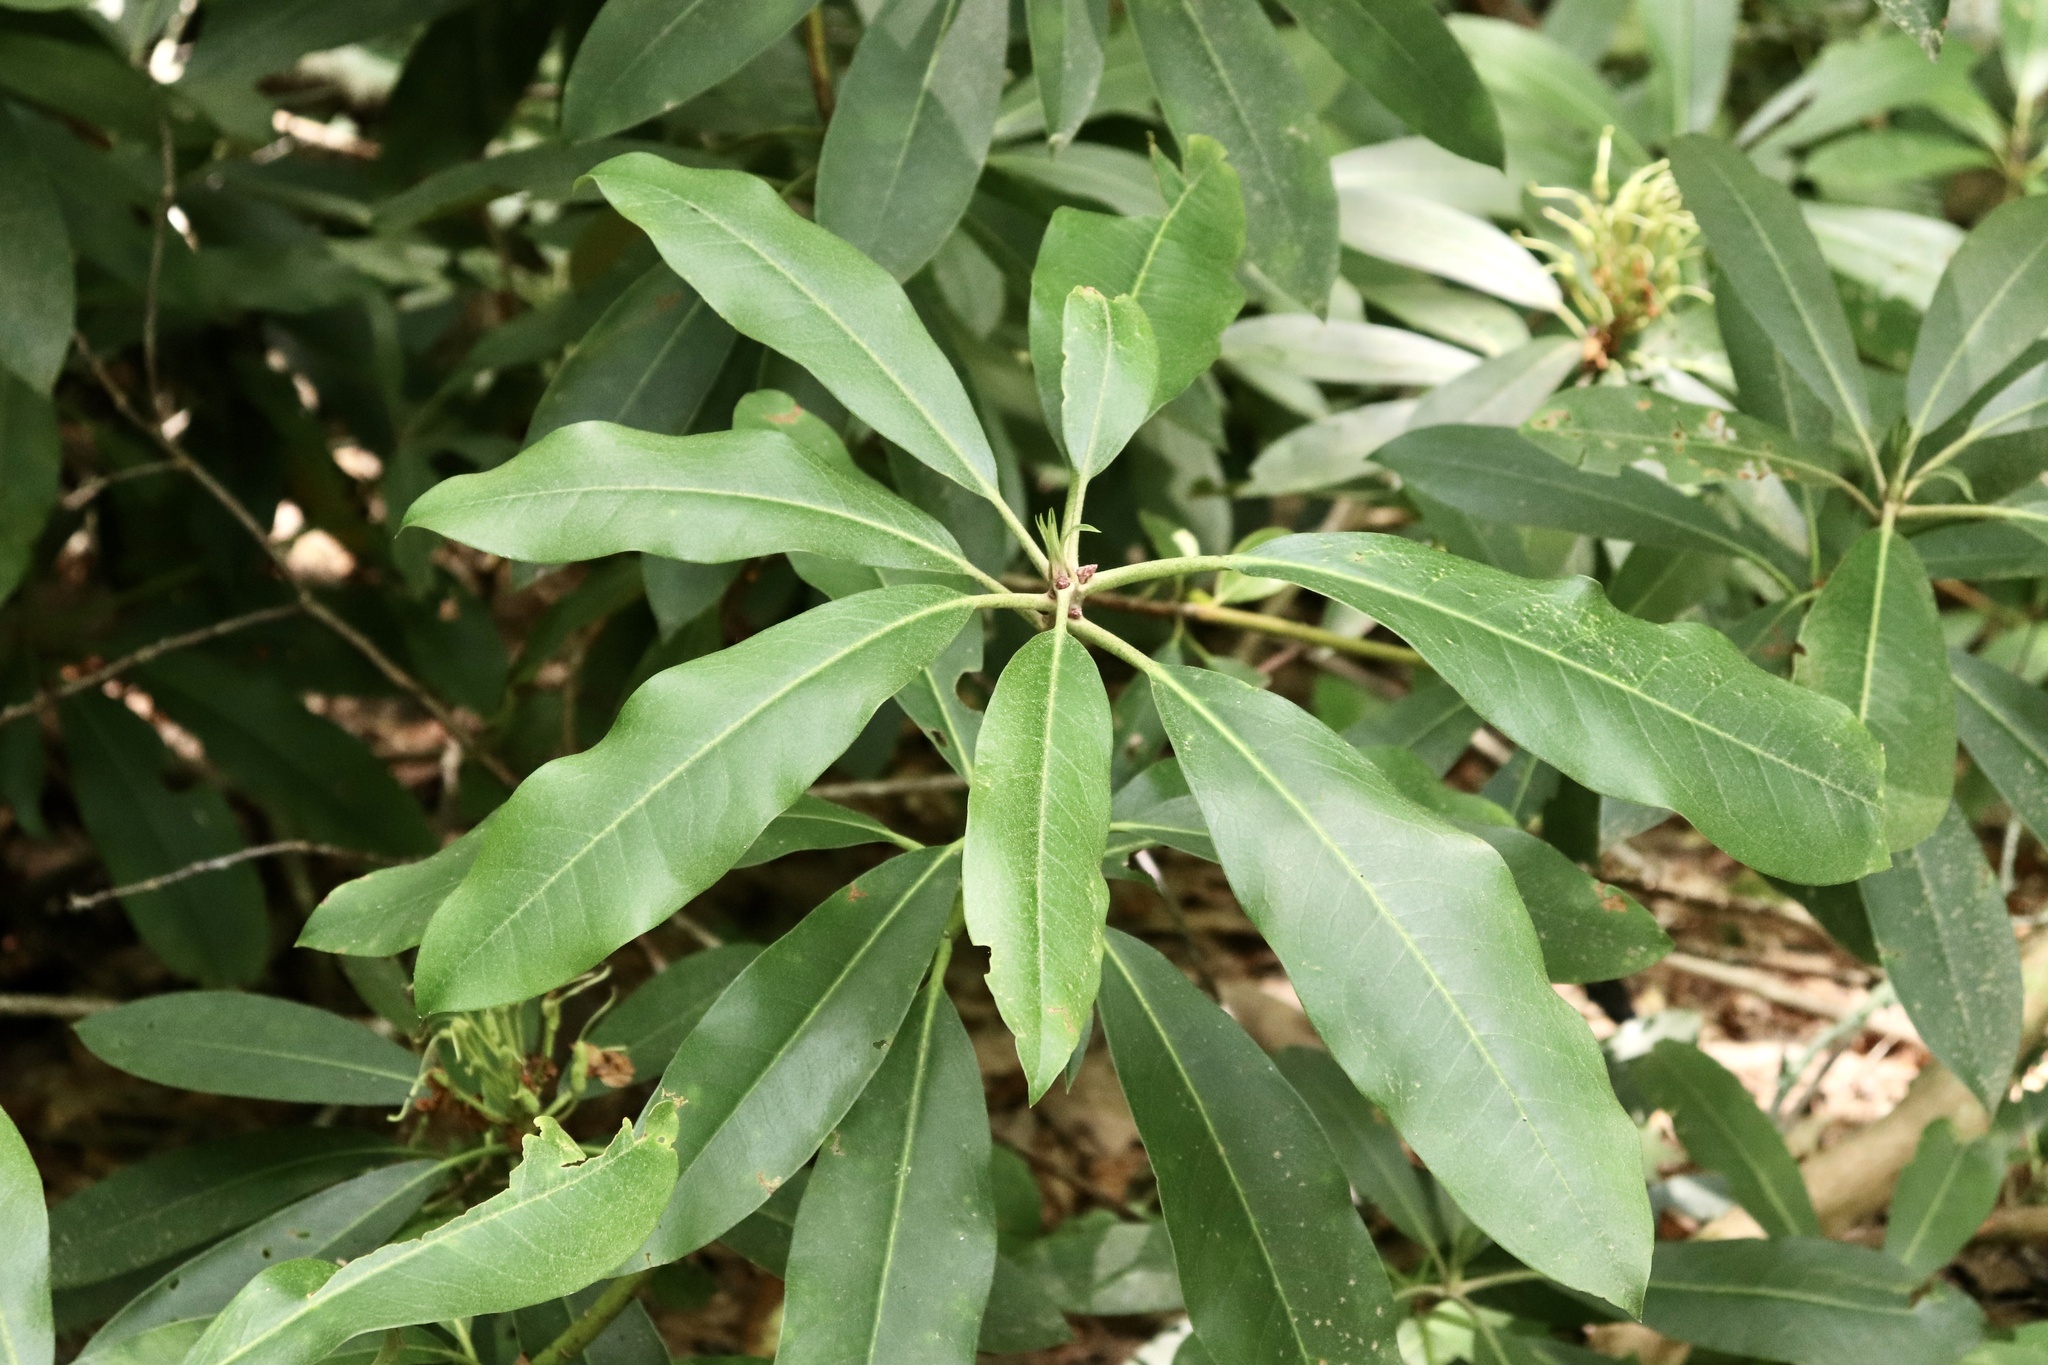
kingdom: Plantae
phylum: Tracheophyta
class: Magnoliopsida
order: Ericales
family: Ericaceae
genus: Rhododendron
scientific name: Rhododendron maximum
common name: Great rhododendron
